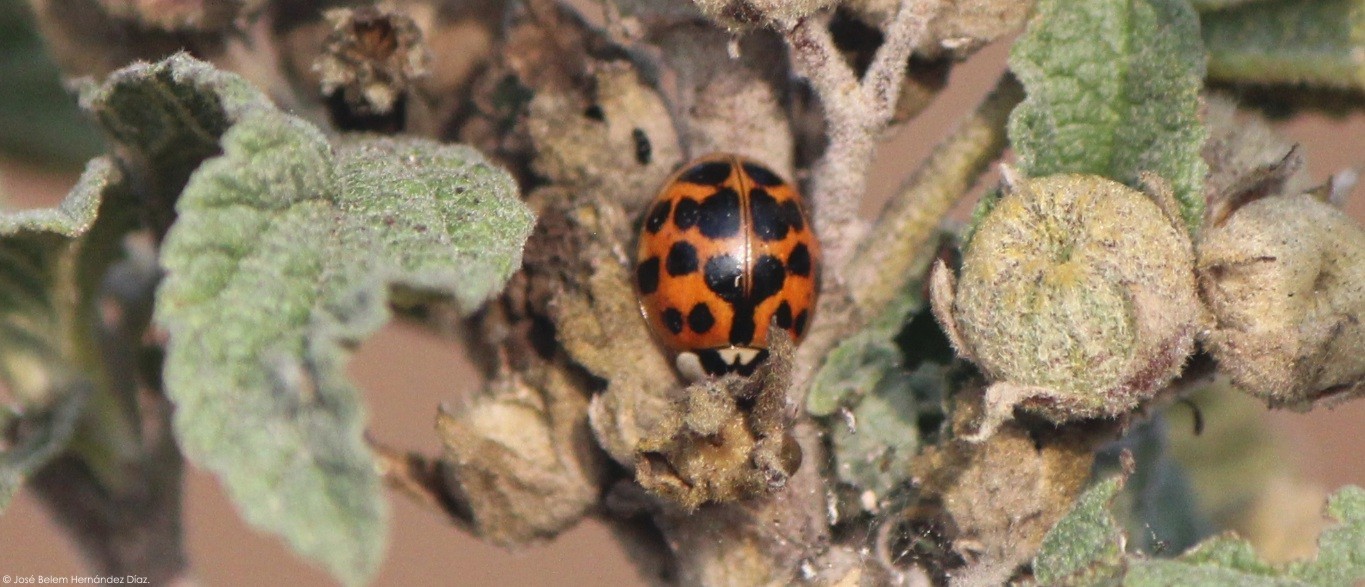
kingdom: Animalia
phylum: Arthropoda
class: Insecta
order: Coleoptera
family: Coccinellidae
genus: Harmonia
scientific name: Harmonia axyridis
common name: Harlequin ladybird
